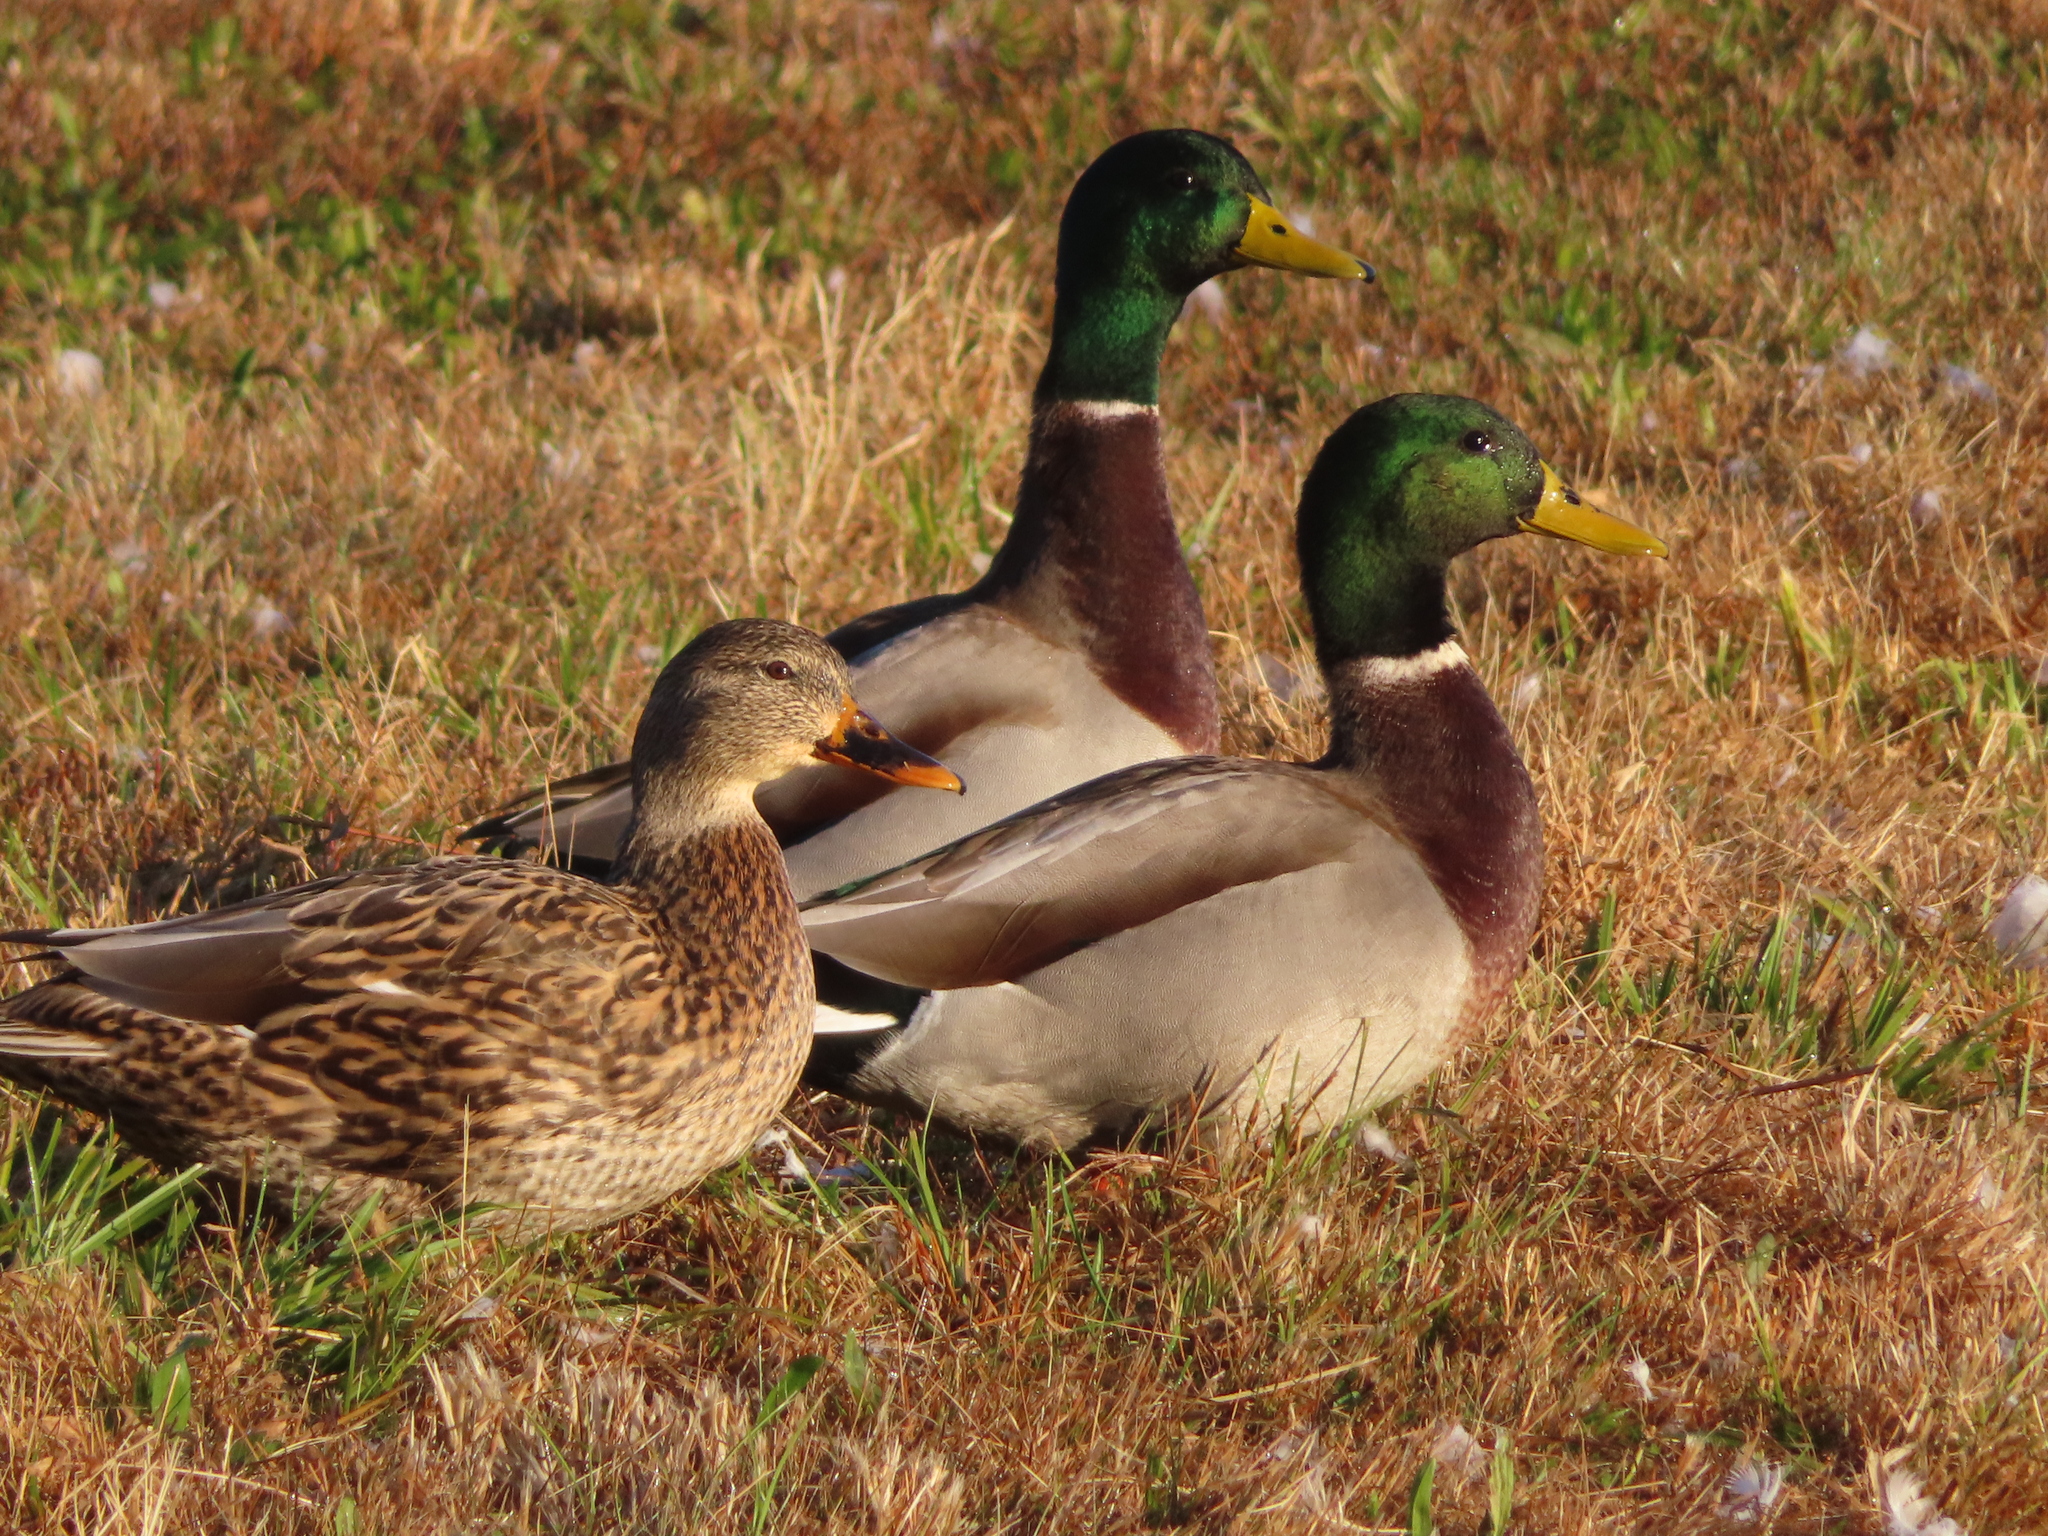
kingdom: Animalia
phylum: Chordata
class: Aves
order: Anseriformes
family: Anatidae
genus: Anas
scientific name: Anas platyrhynchos
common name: Mallard
